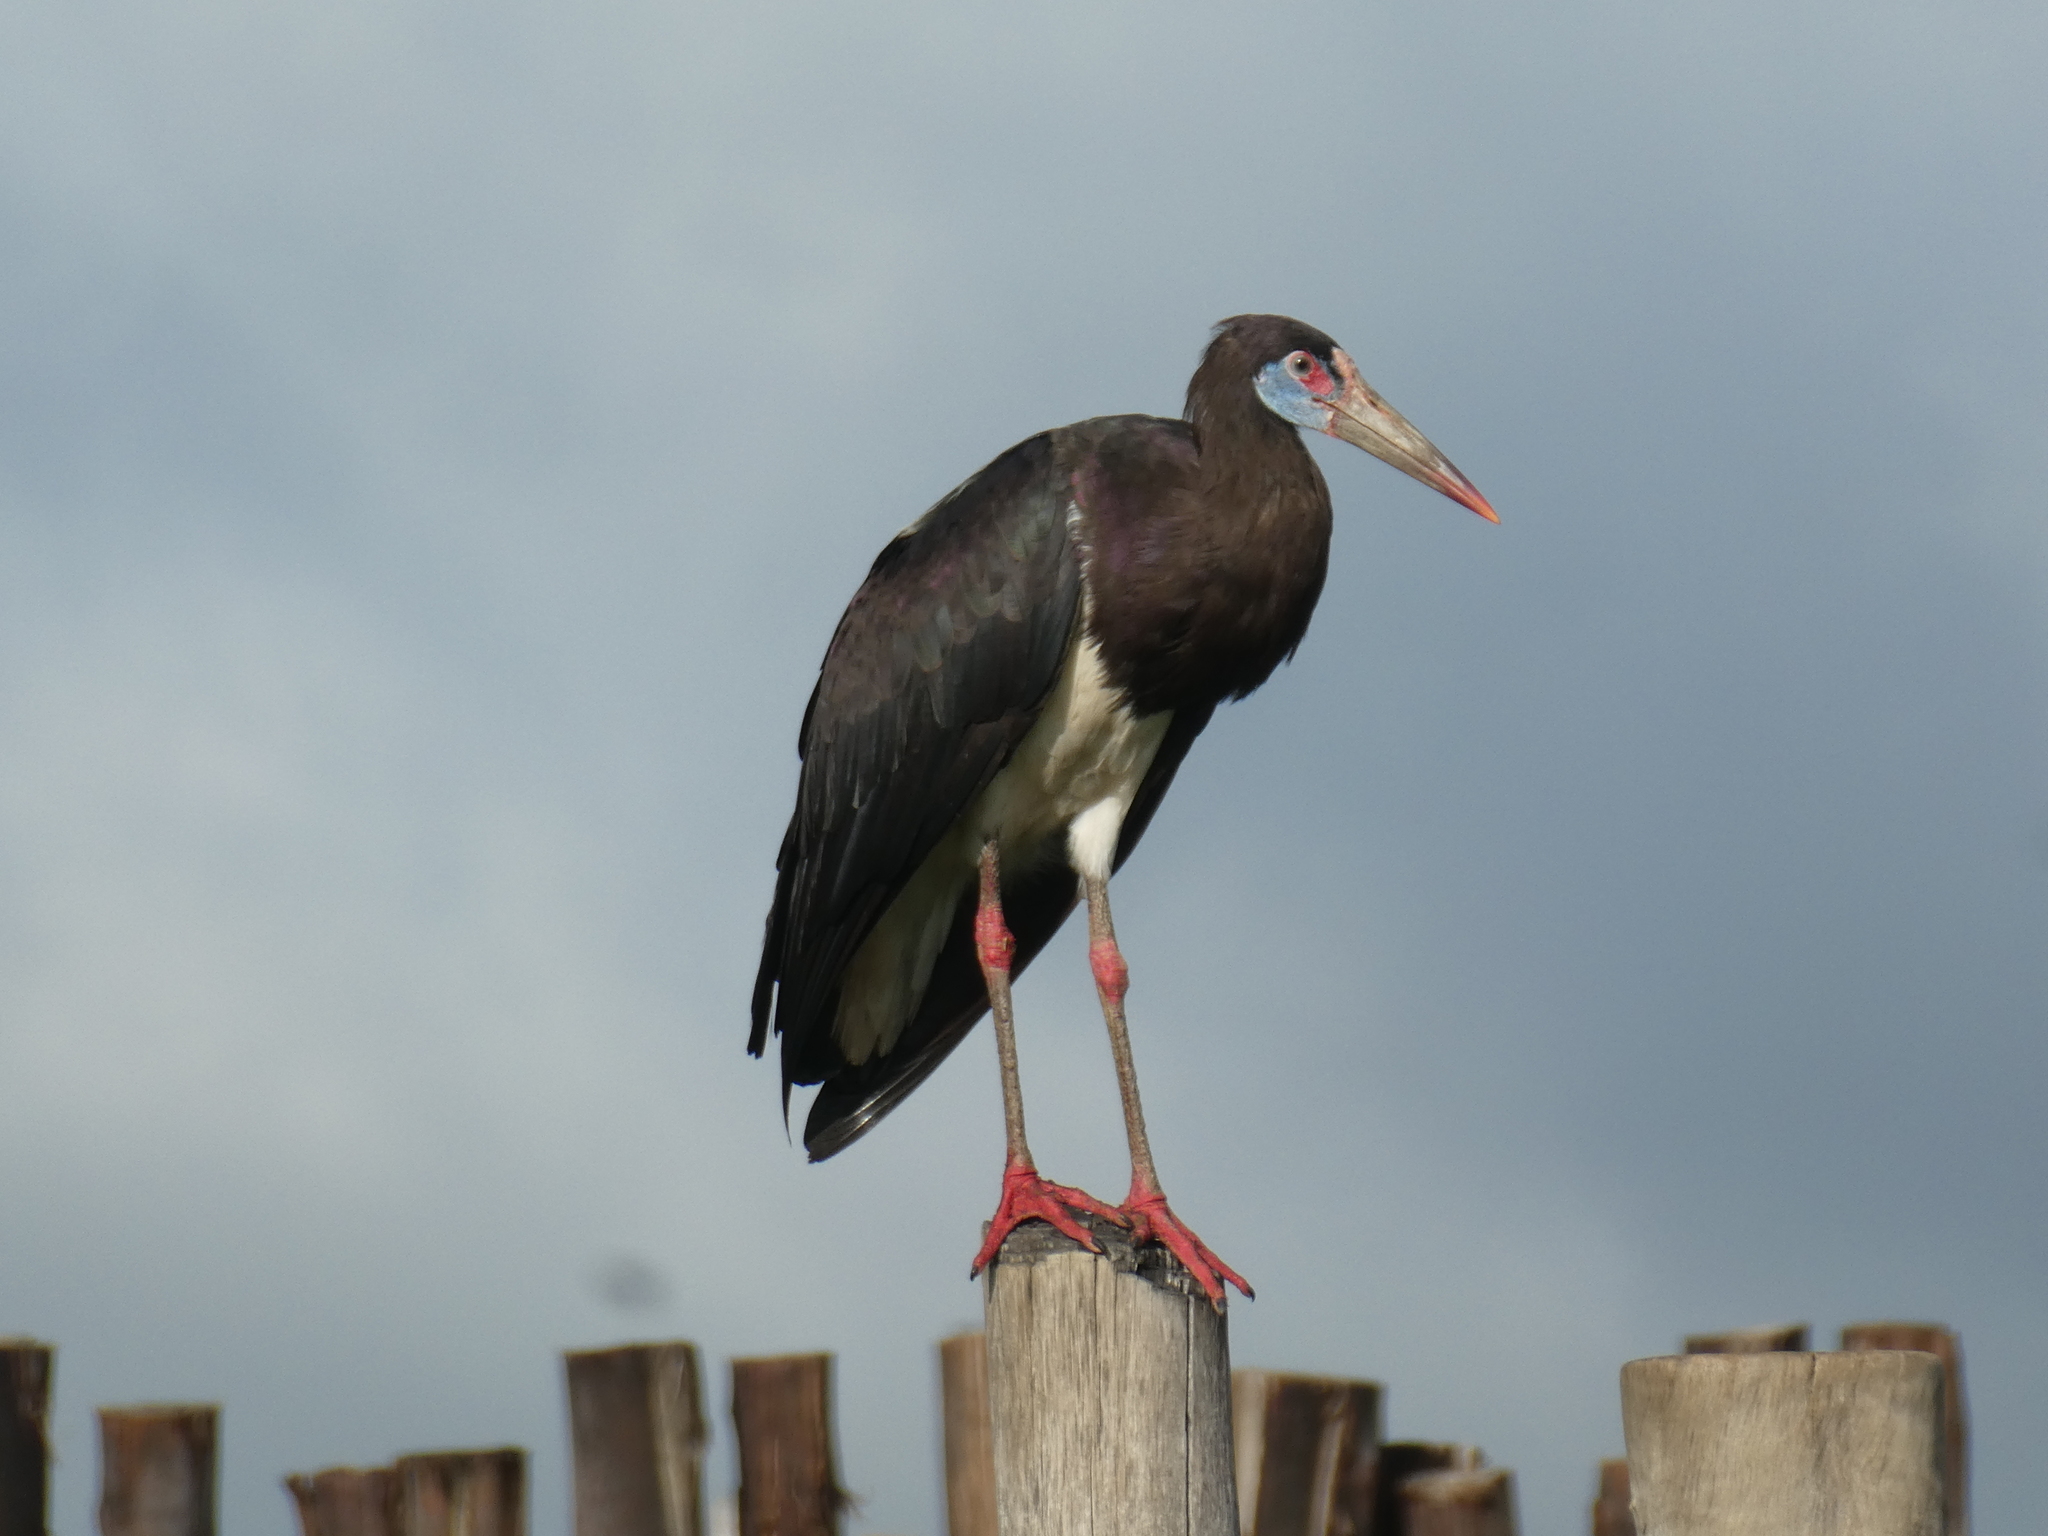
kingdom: Animalia
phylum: Chordata
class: Aves
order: Ciconiiformes
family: Ciconiidae
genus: Ciconia
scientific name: Ciconia abdimii
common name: Abdim's stork
